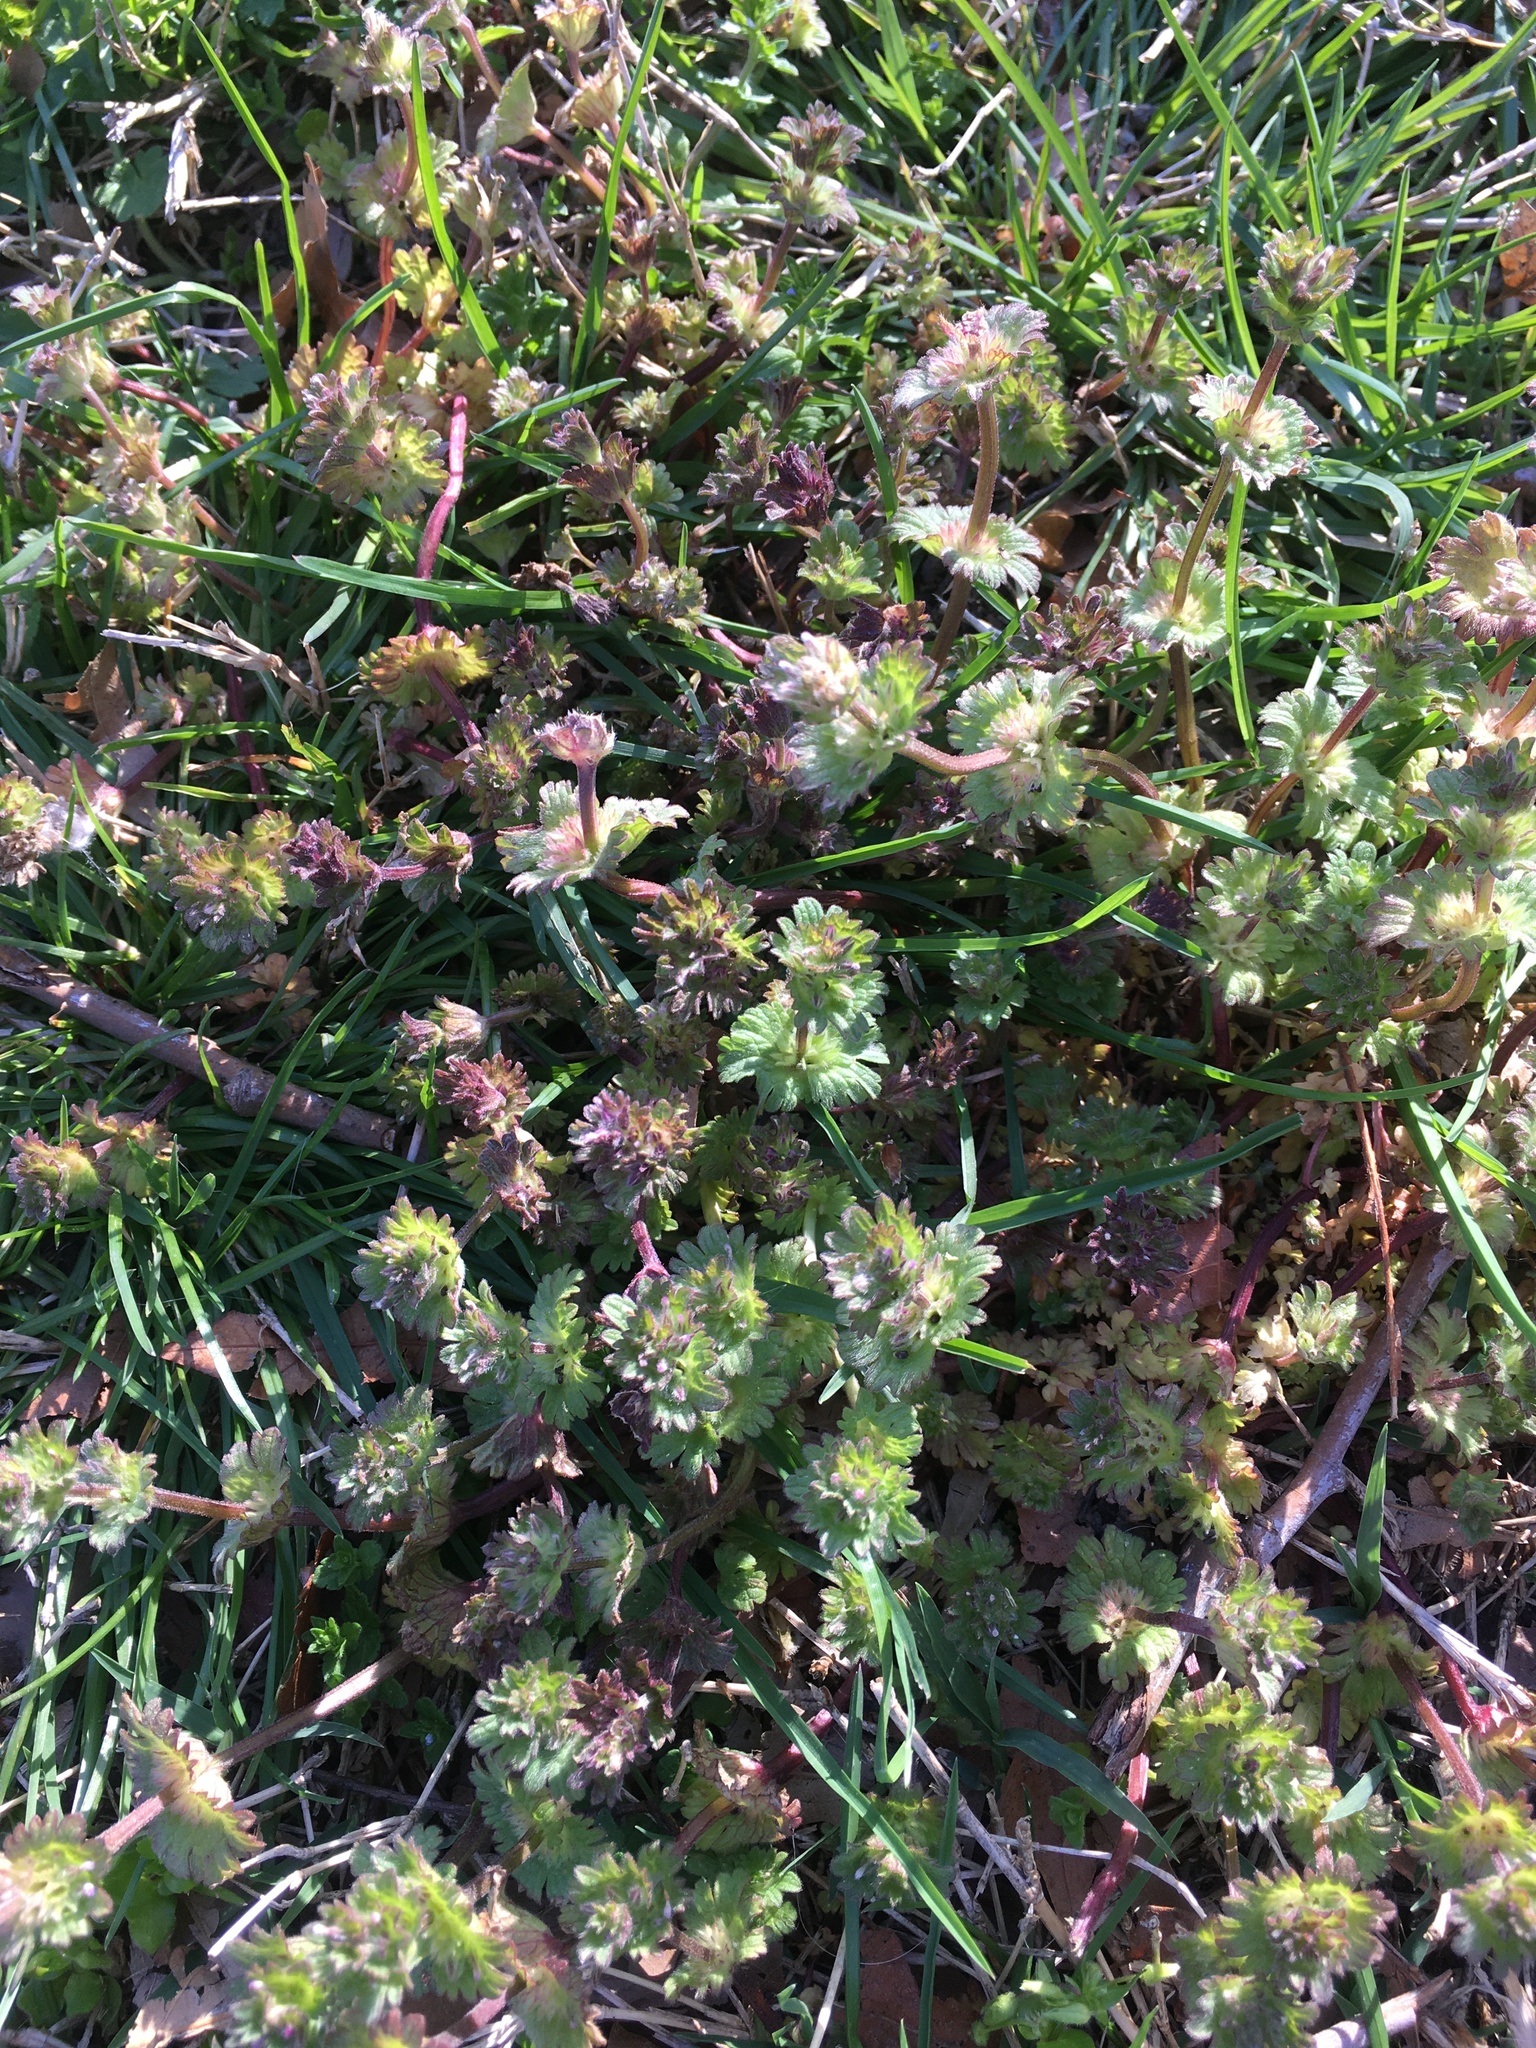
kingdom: Plantae
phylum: Tracheophyta
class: Magnoliopsida
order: Lamiales
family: Lamiaceae
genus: Lamium
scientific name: Lamium amplexicaule
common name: Henbit dead-nettle
